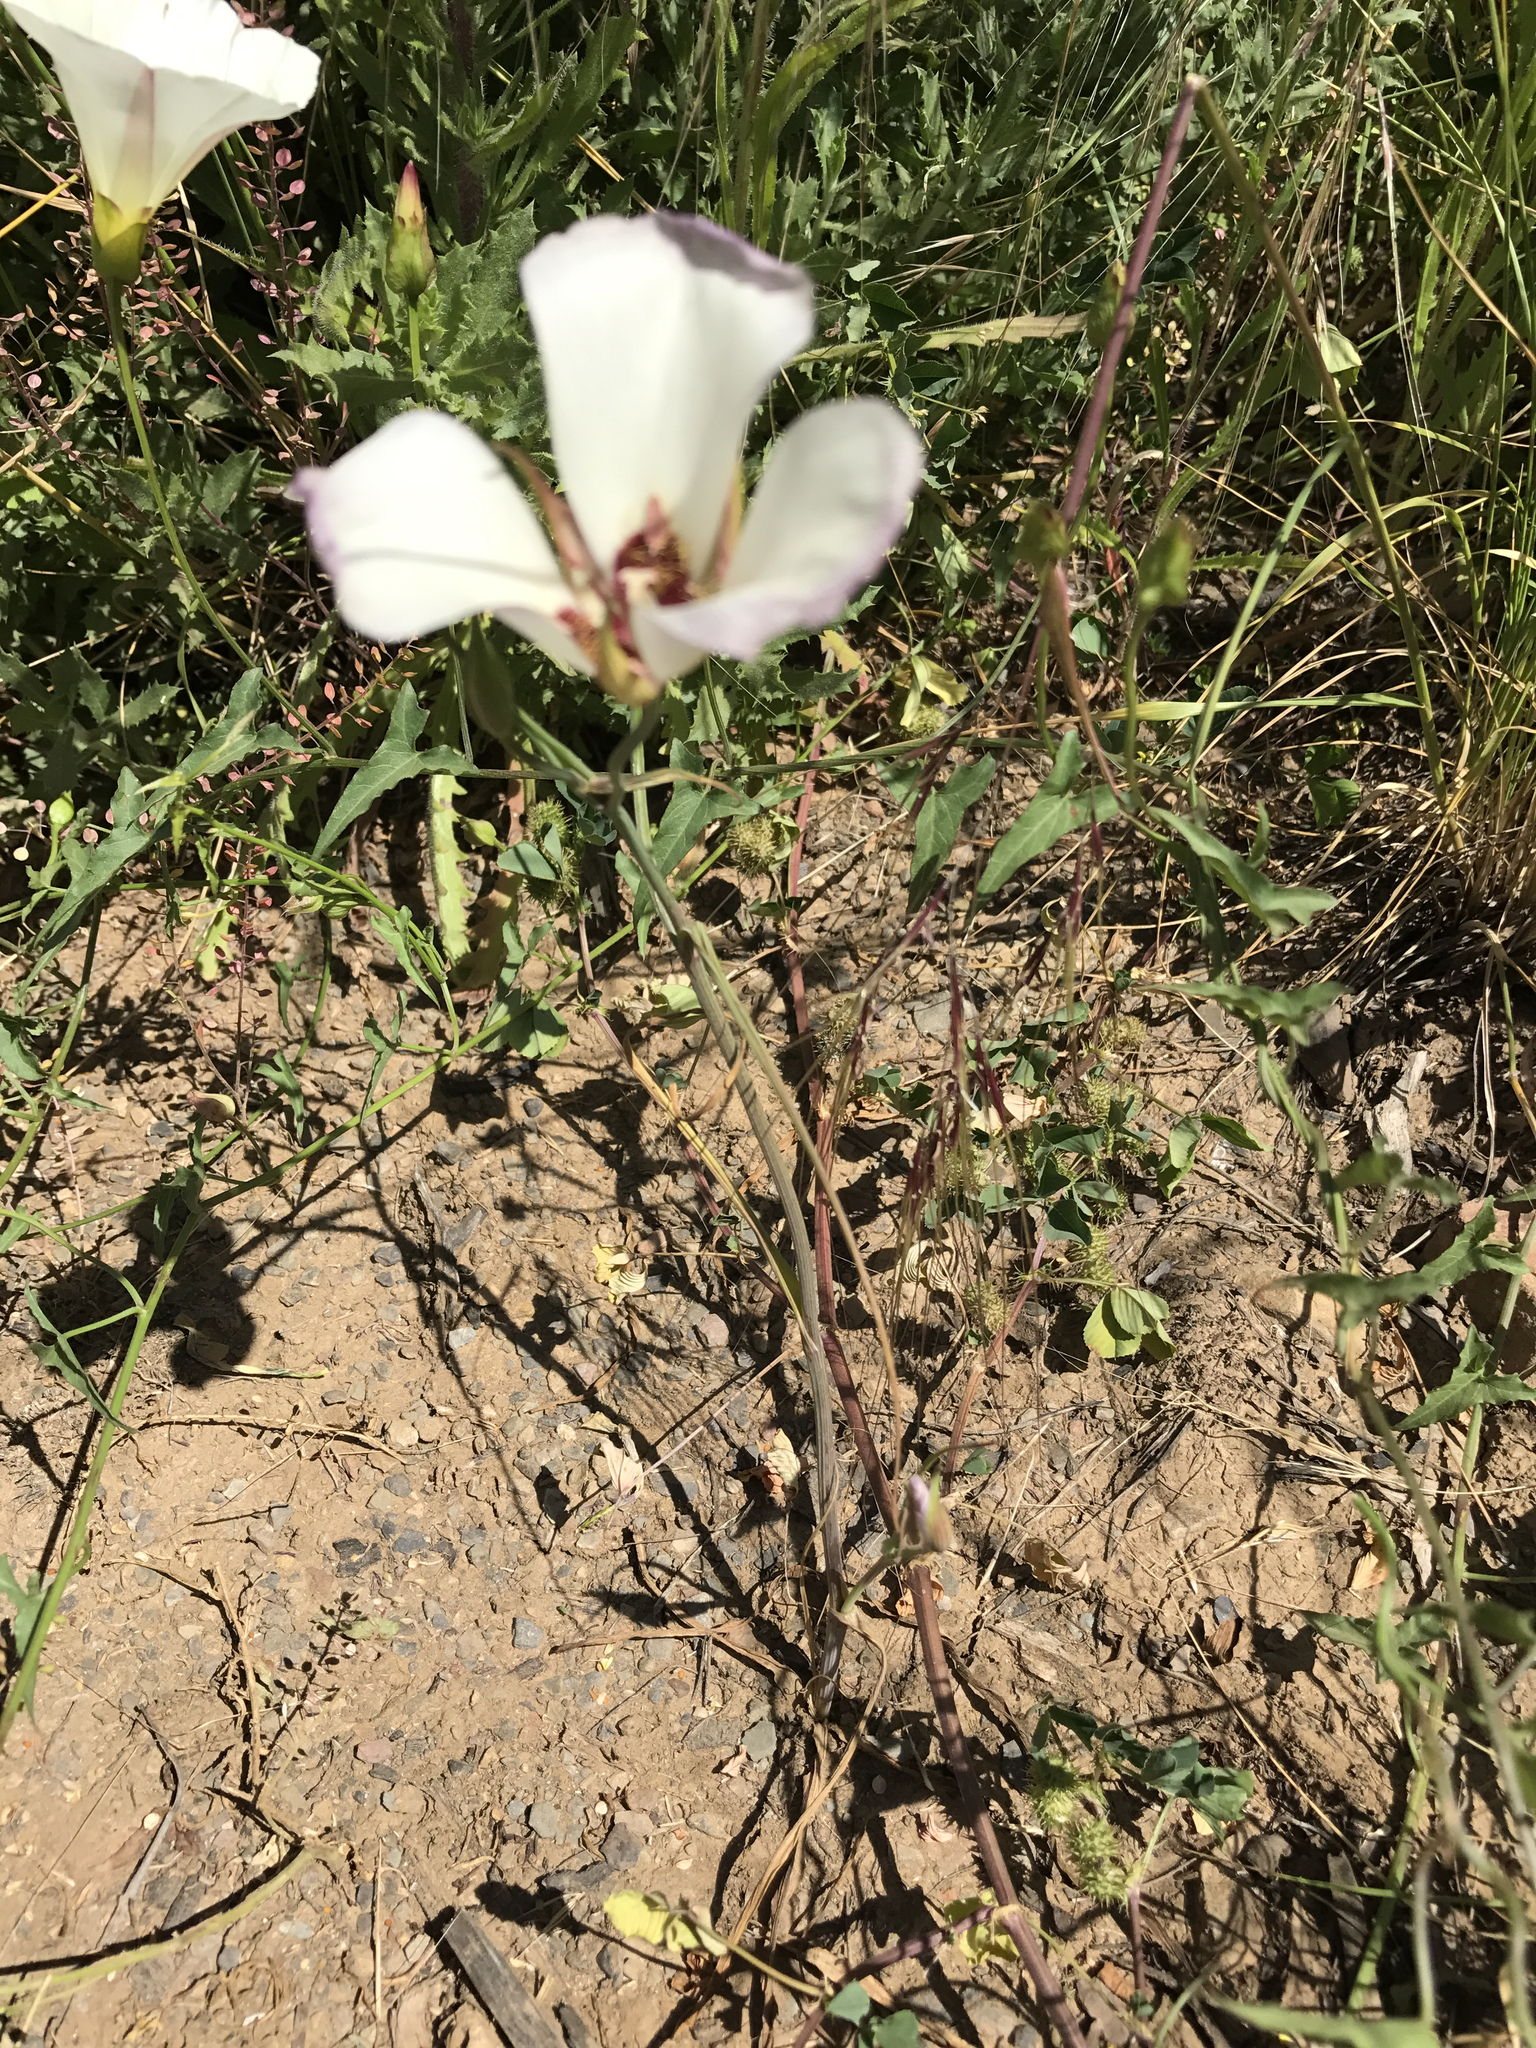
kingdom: Plantae
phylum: Tracheophyta
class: Liliopsida
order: Liliales
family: Liliaceae
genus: Calochortus
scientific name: Calochortus catalinae
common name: Catalina mariposa-lily
